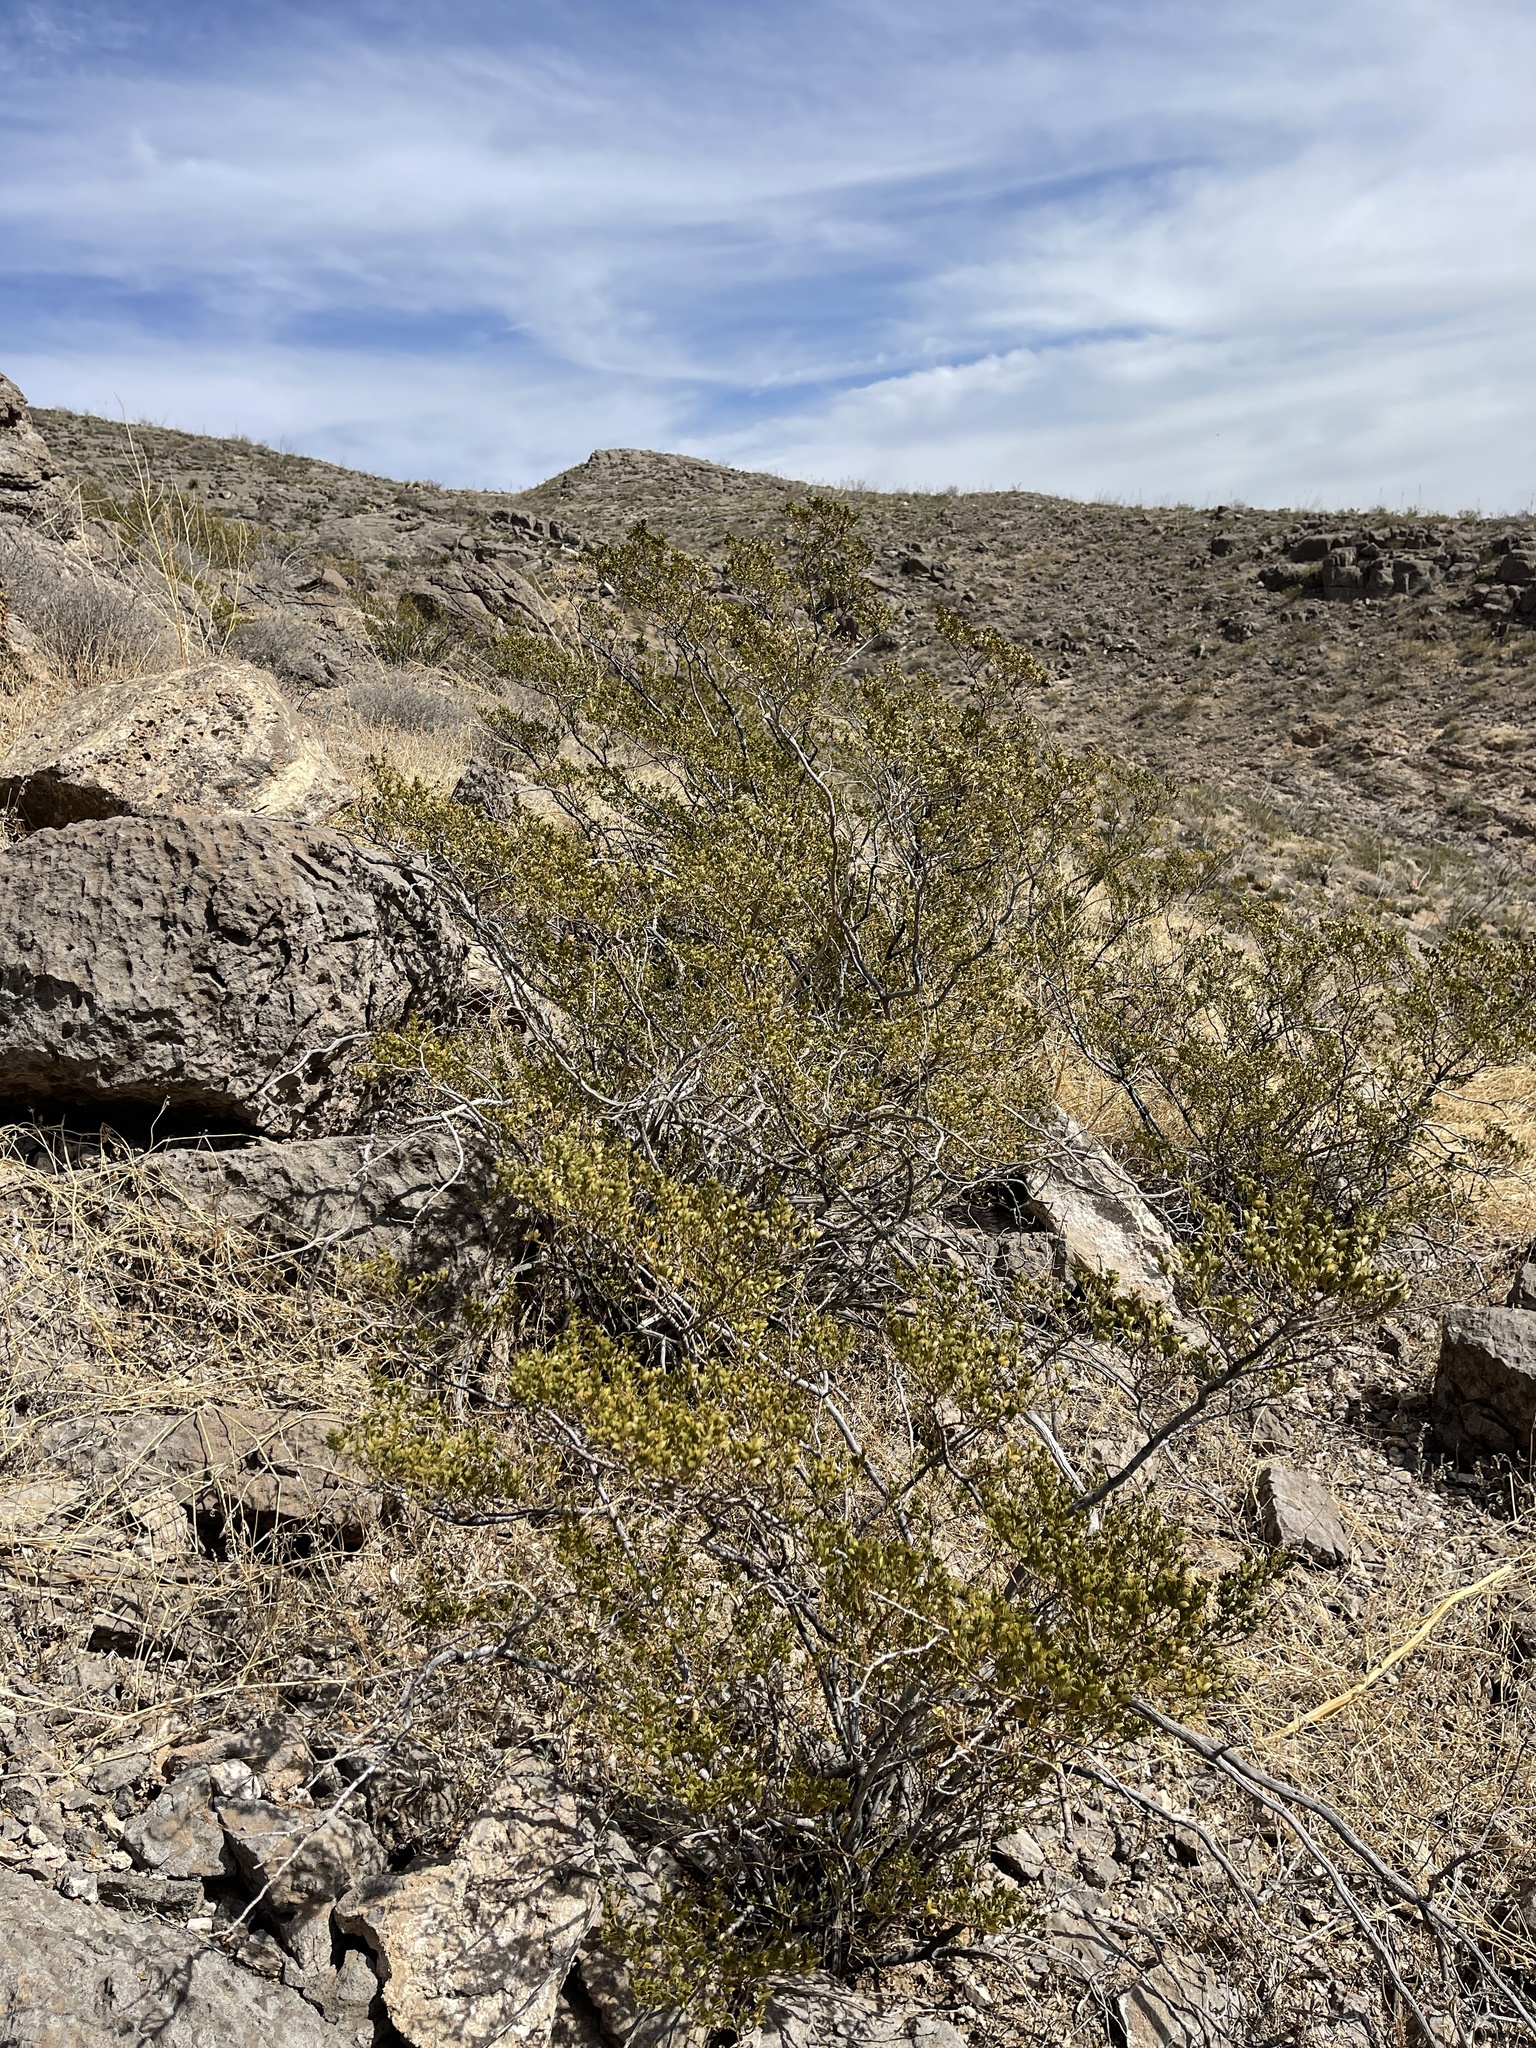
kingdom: Plantae
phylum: Tracheophyta
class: Magnoliopsida
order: Zygophyllales
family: Zygophyllaceae
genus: Larrea
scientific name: Larrea tridentata
